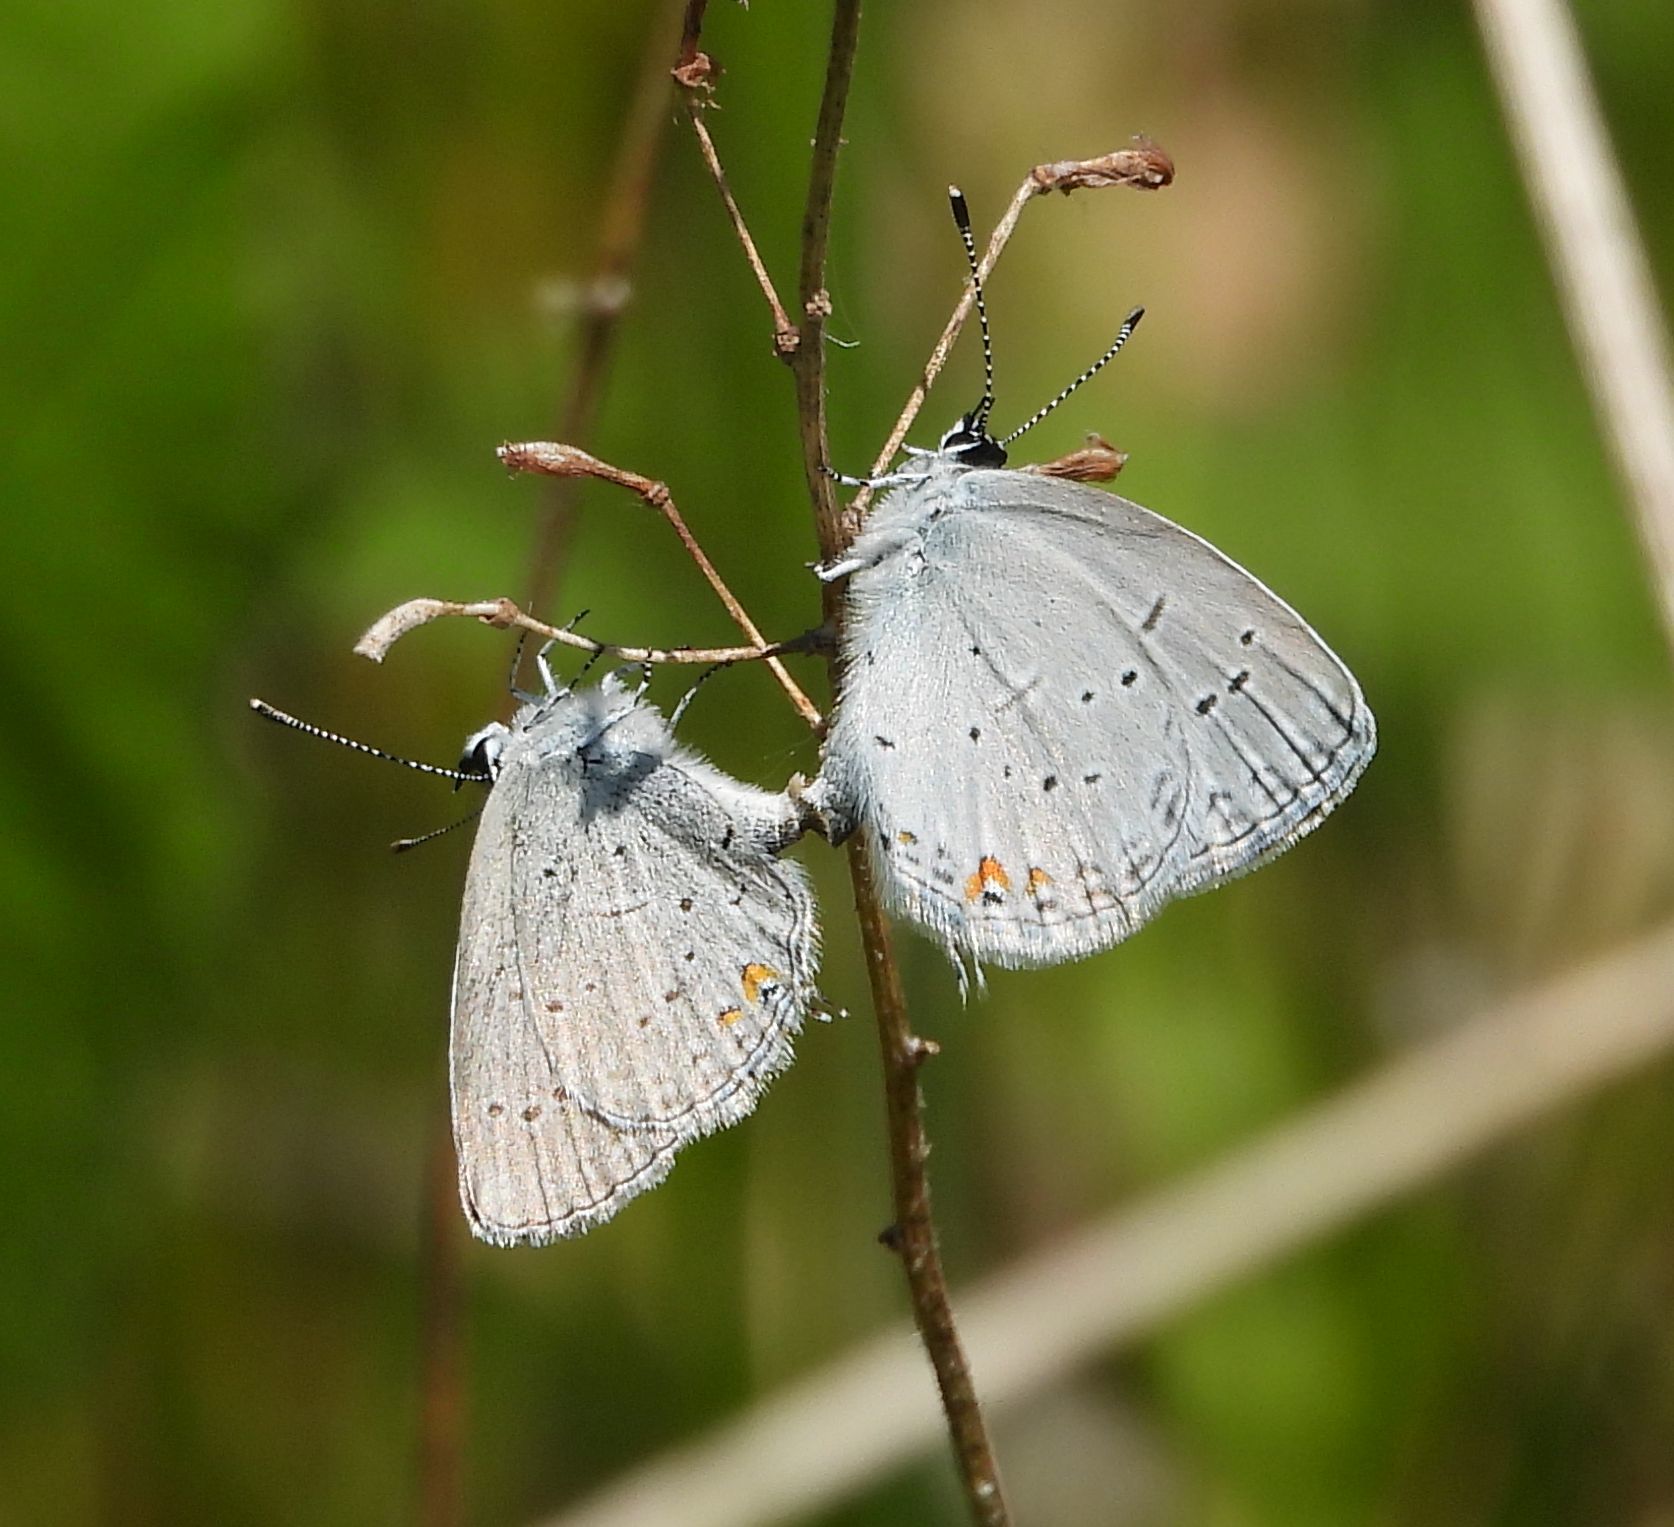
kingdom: Animalia
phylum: Arthropoda
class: Insecta
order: Lepidoptera
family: Lycaenidae
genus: Elkalyce
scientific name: Elkalyce comyntas
